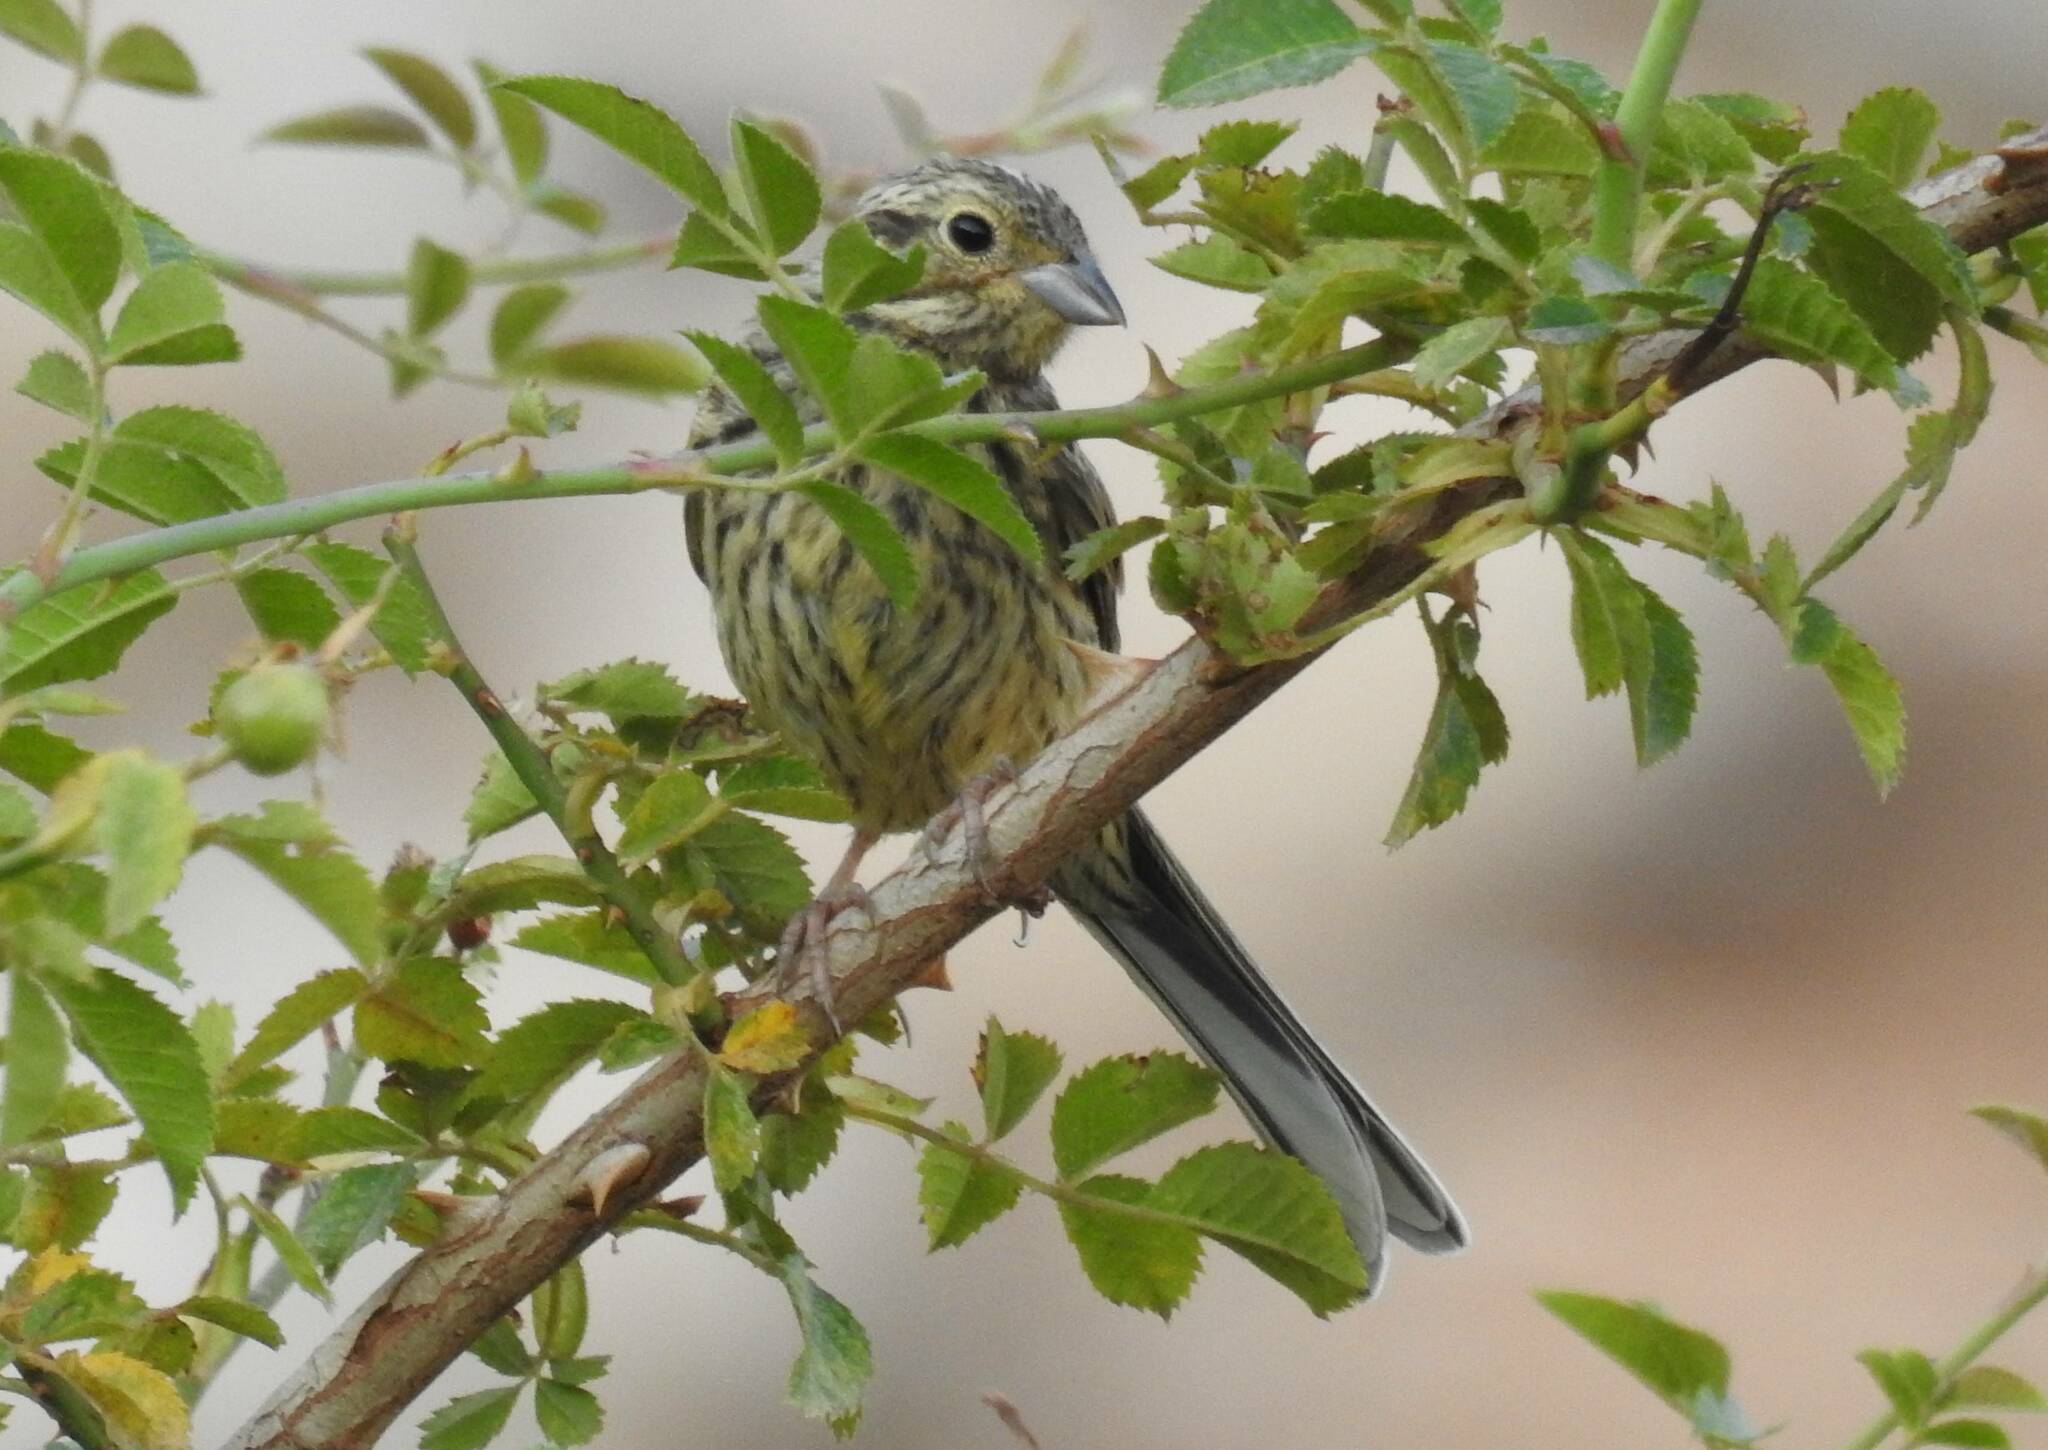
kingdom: Animalia
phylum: Chordata
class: Aves
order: Passeriformes
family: Emberizidae
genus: Emberiza
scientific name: Emberiza cirlus
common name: Cirl bunting
